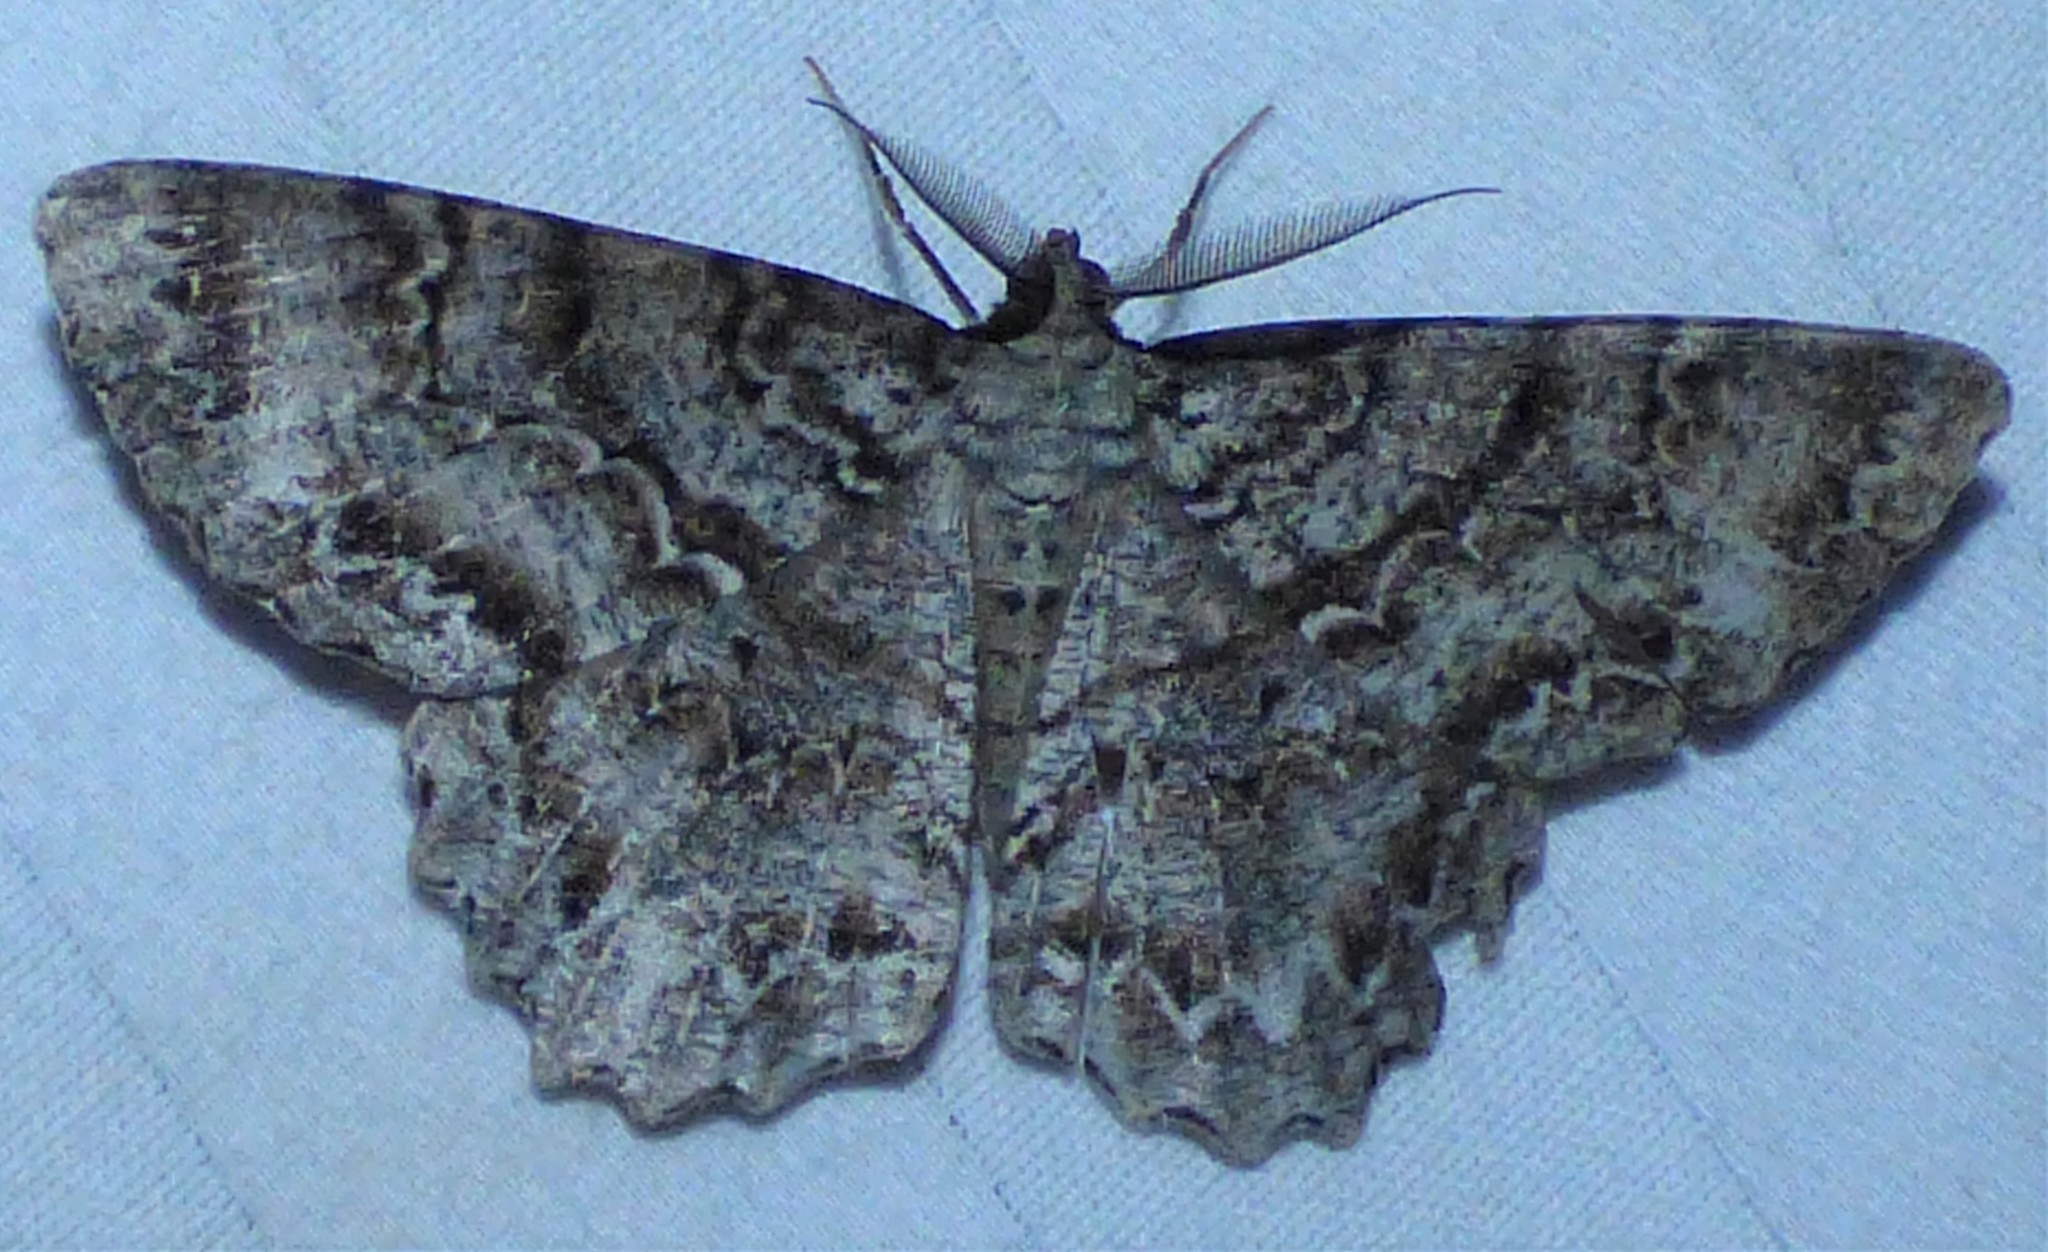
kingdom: Animalia
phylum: Arthropoda
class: Insecta
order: Lepidoptera
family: Geometridae
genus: Epimecis
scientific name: Epimecis hortaria
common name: Tulip-tree beauty
